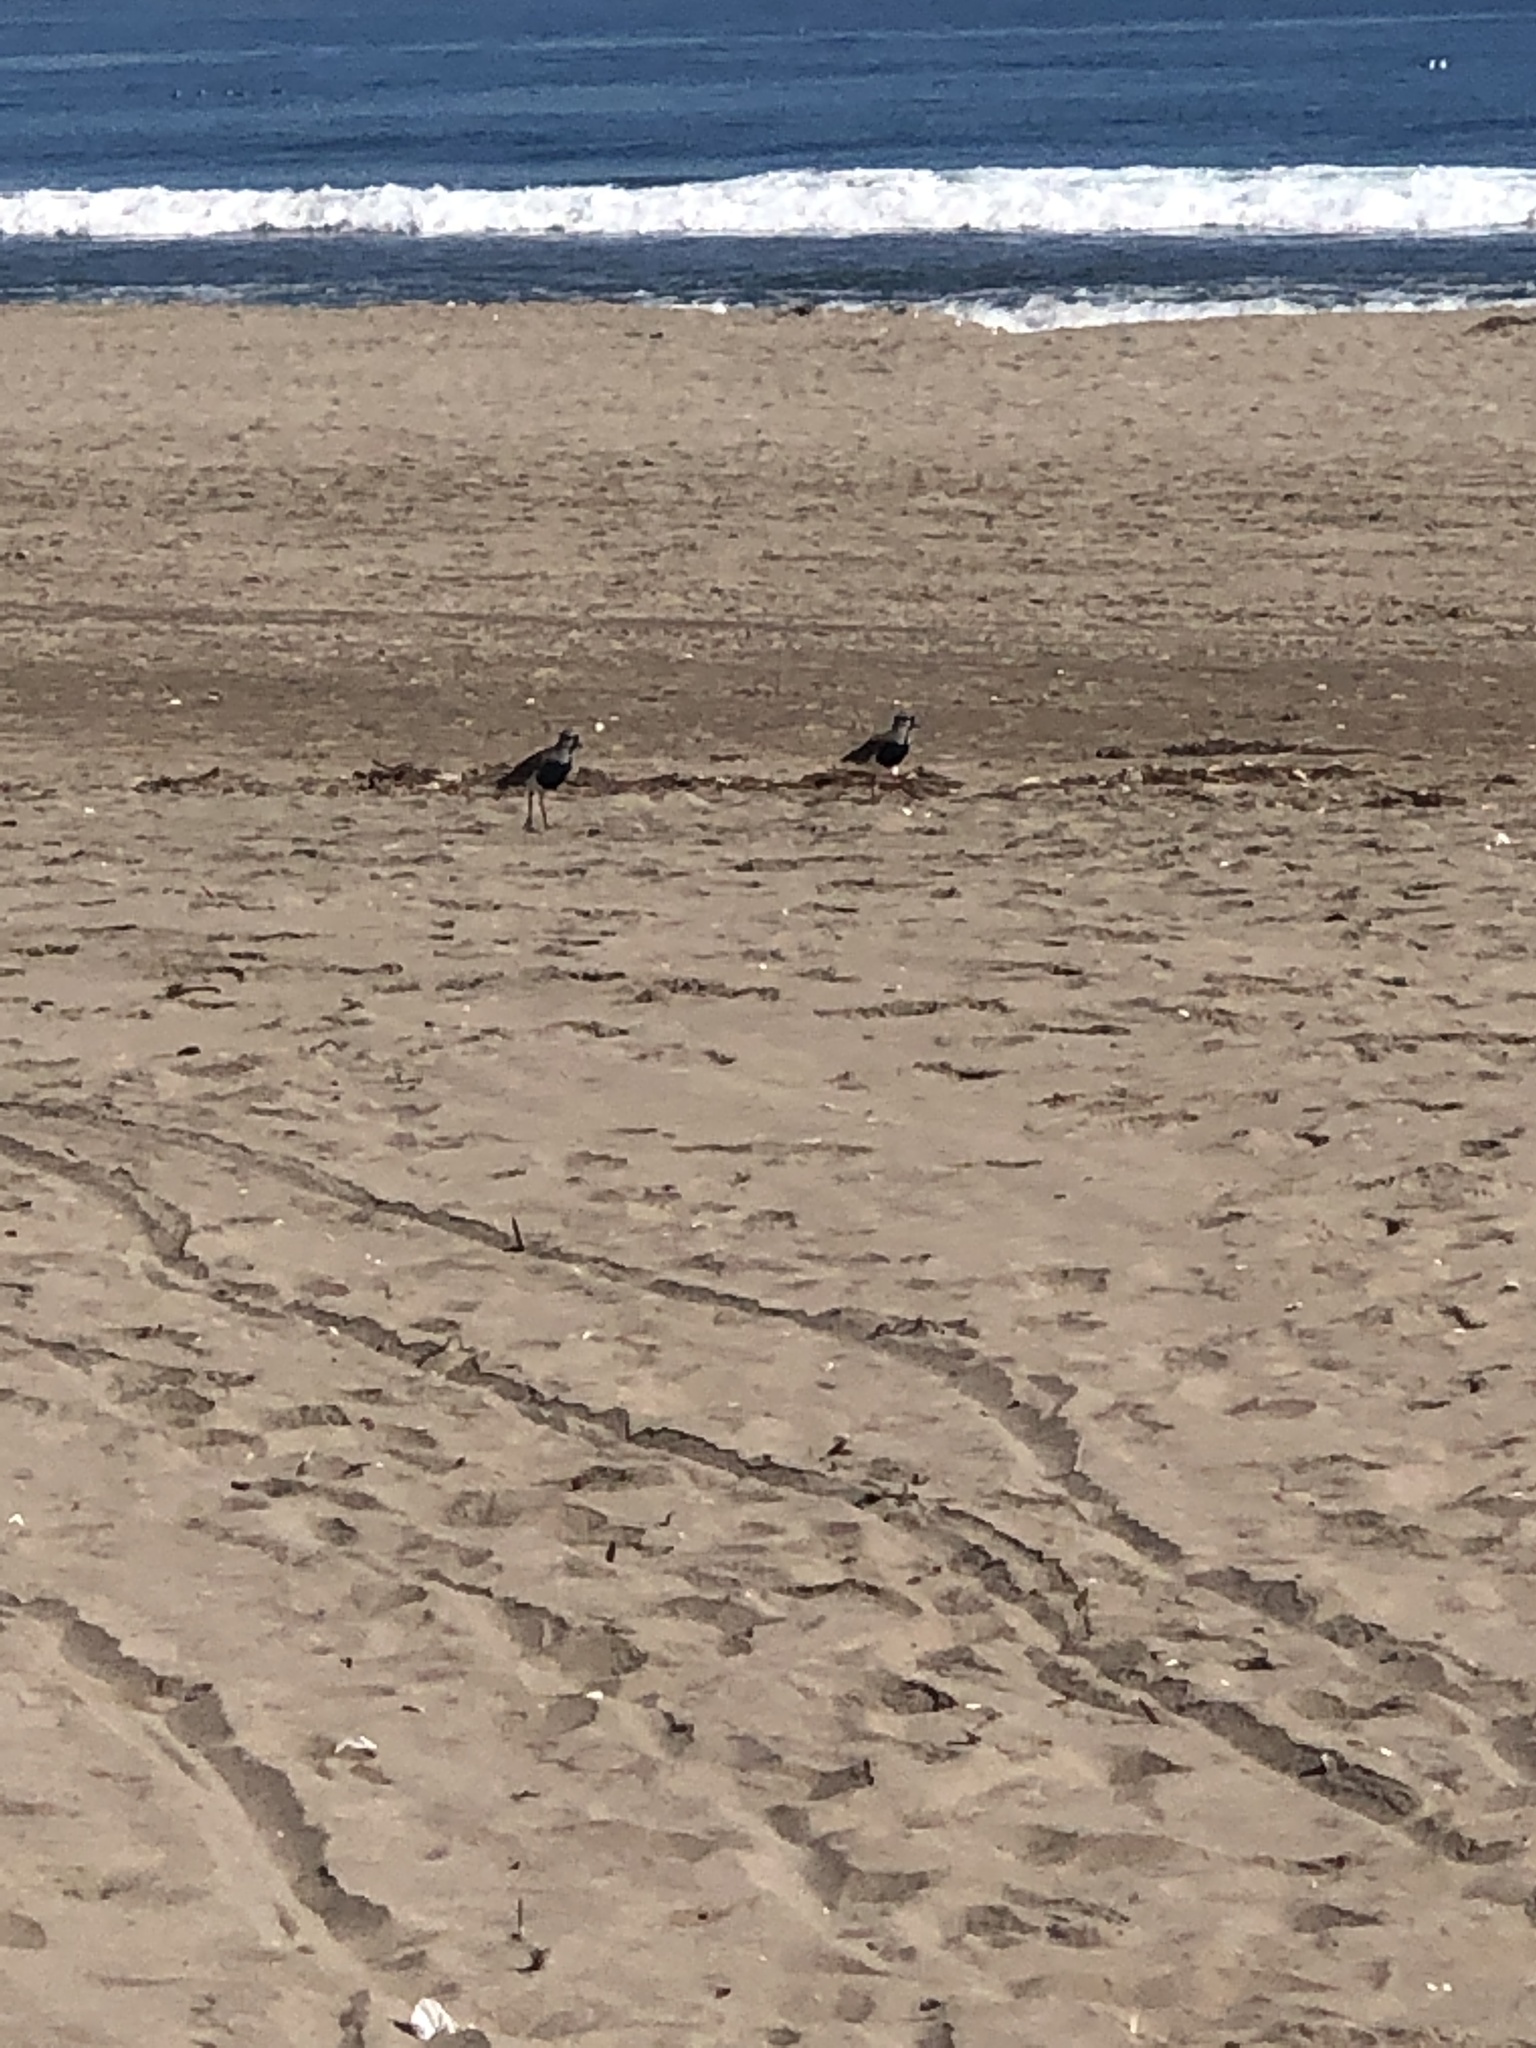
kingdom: Animalia
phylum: Chordata
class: Aves
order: Charadriiformes
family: Charadriidae
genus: Vanellus
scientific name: Vanellus chilensis
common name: Southern lapwing
